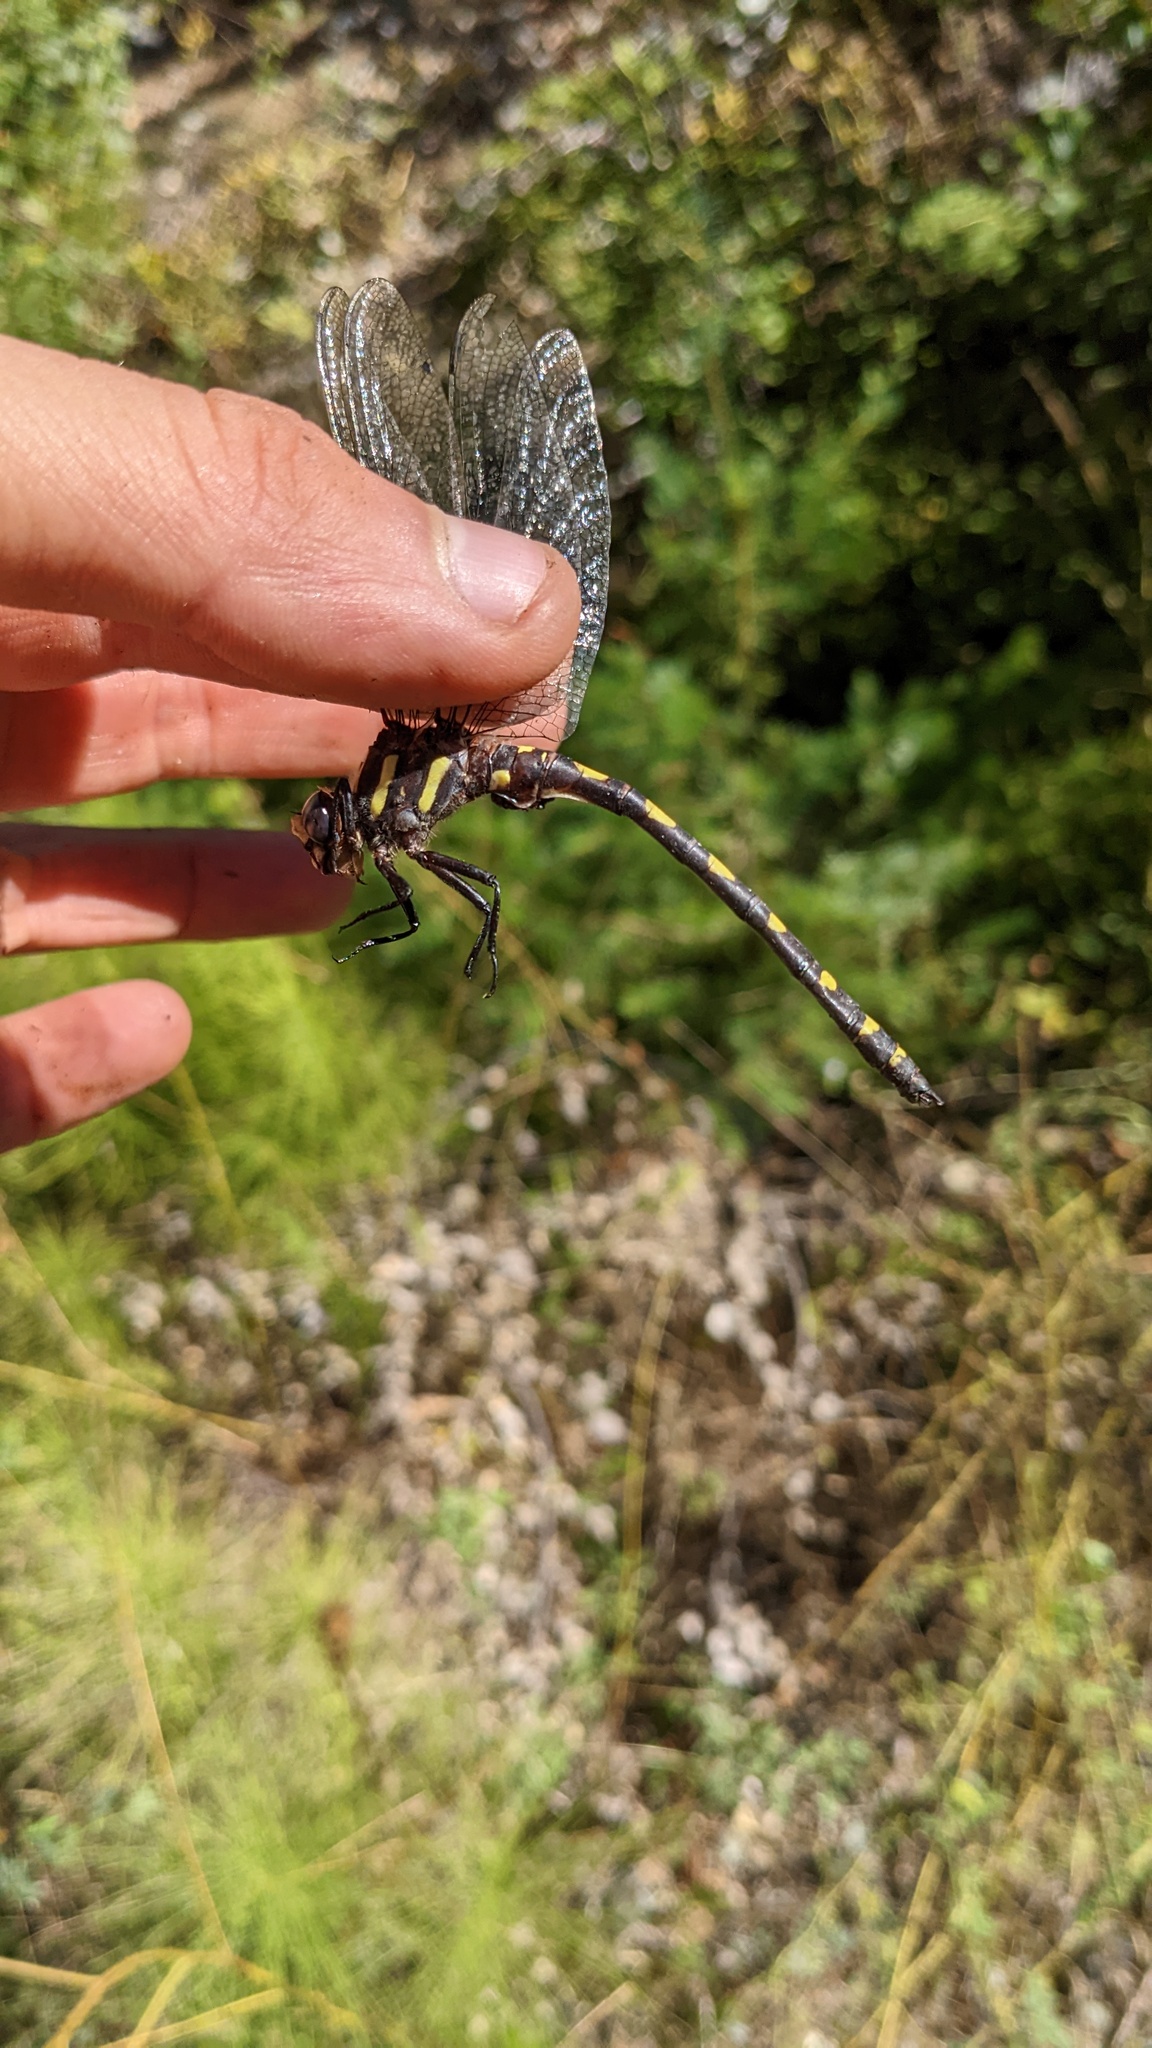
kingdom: Animalia
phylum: Arthropoda
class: Insecta
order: Odonata
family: Cordulegastridae
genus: Cordulegaster
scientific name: Cordulegaster dorsalis
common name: Pacific spiketail
